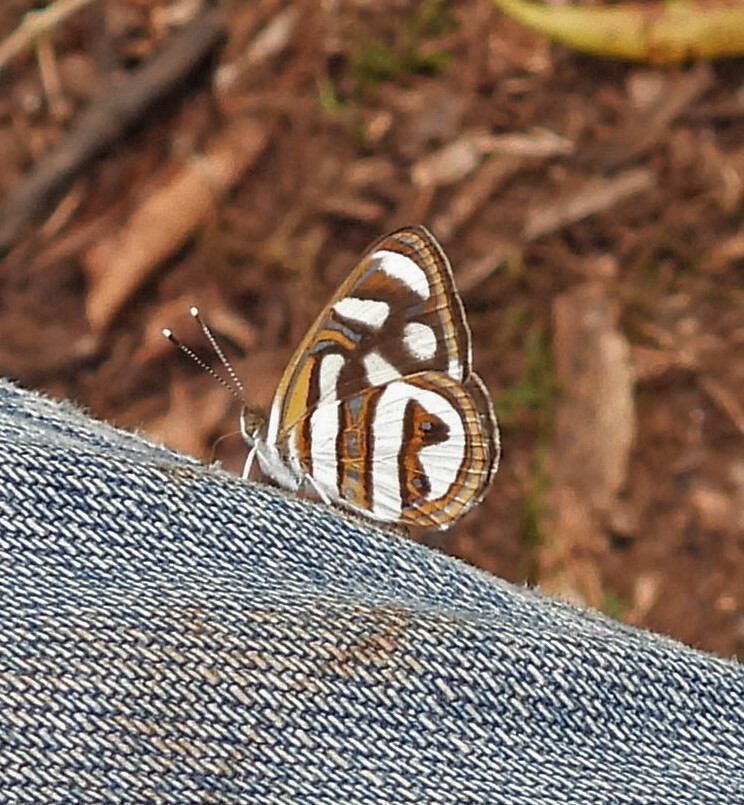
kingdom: Animalia
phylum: Arthropoda
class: Insecta
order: Lepidoptera
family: Nymphalidae
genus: Dynamine
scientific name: Dynamine artemisia
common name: Small-eyed sailor
